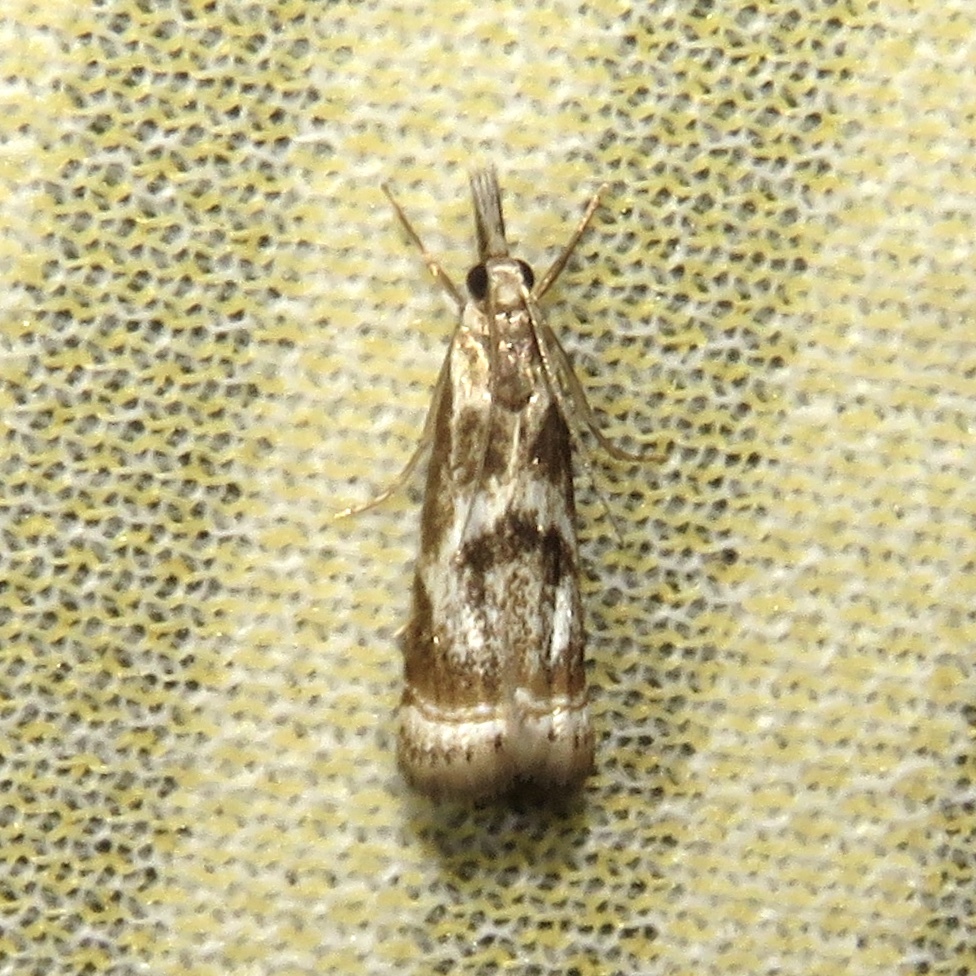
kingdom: Animalia
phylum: Arthropoda
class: Insecta
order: Lepidoptera
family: Crambidae
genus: Microcrambus
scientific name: Microcrambus elegans
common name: Elegant grass-veneer
